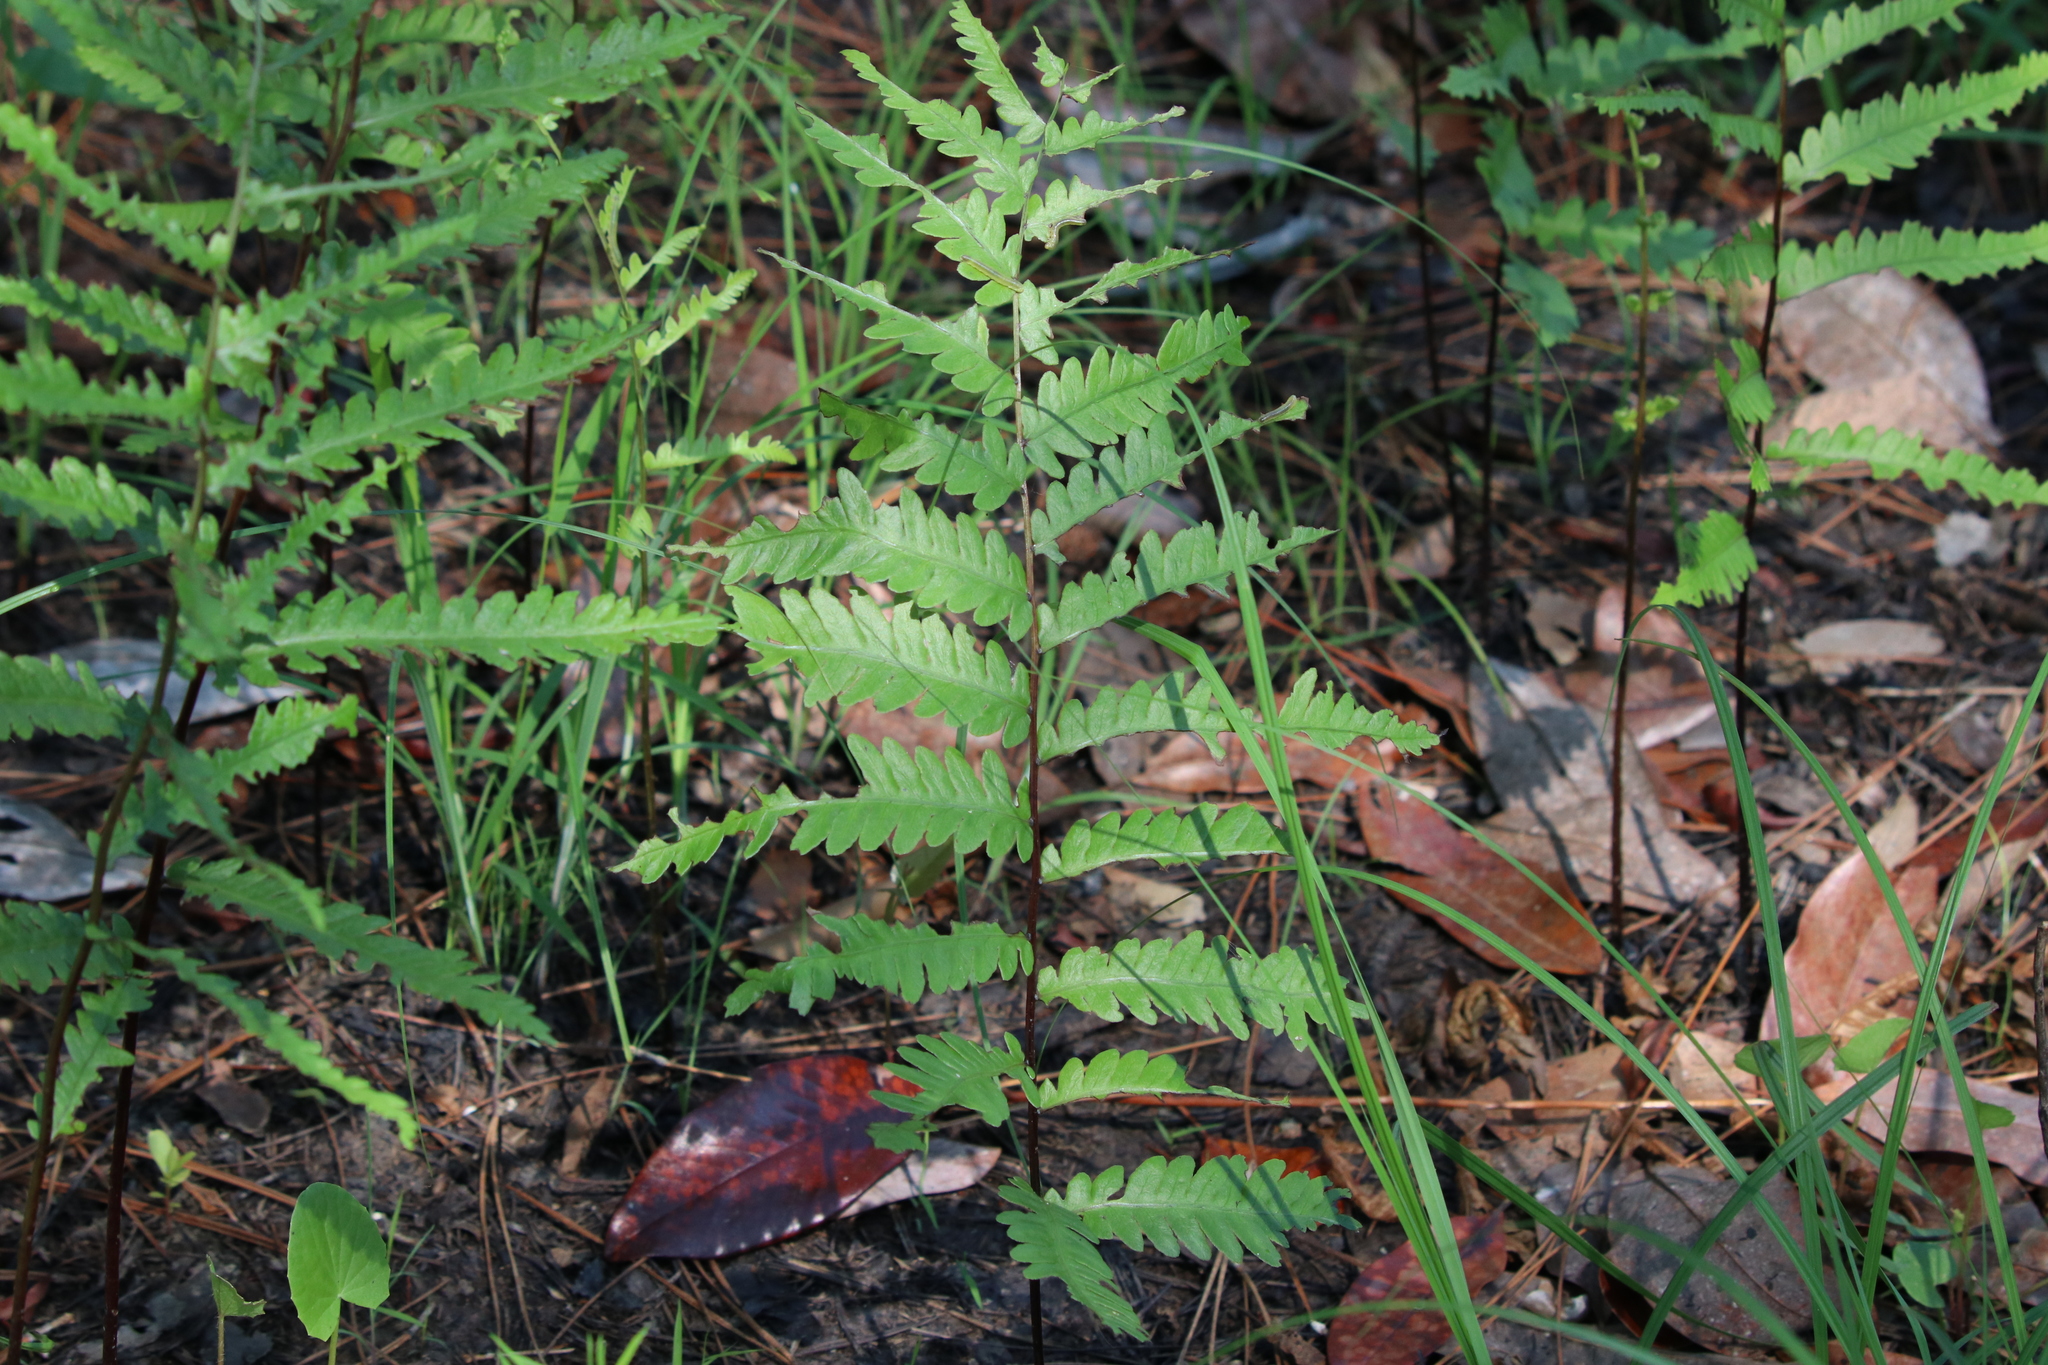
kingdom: Plantae
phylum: Tracheophyta
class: Polypodiopsida
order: Polypodiales
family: Blechnaceae
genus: Anchistea
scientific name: Anchistea virginica
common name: Virginia chain fern
